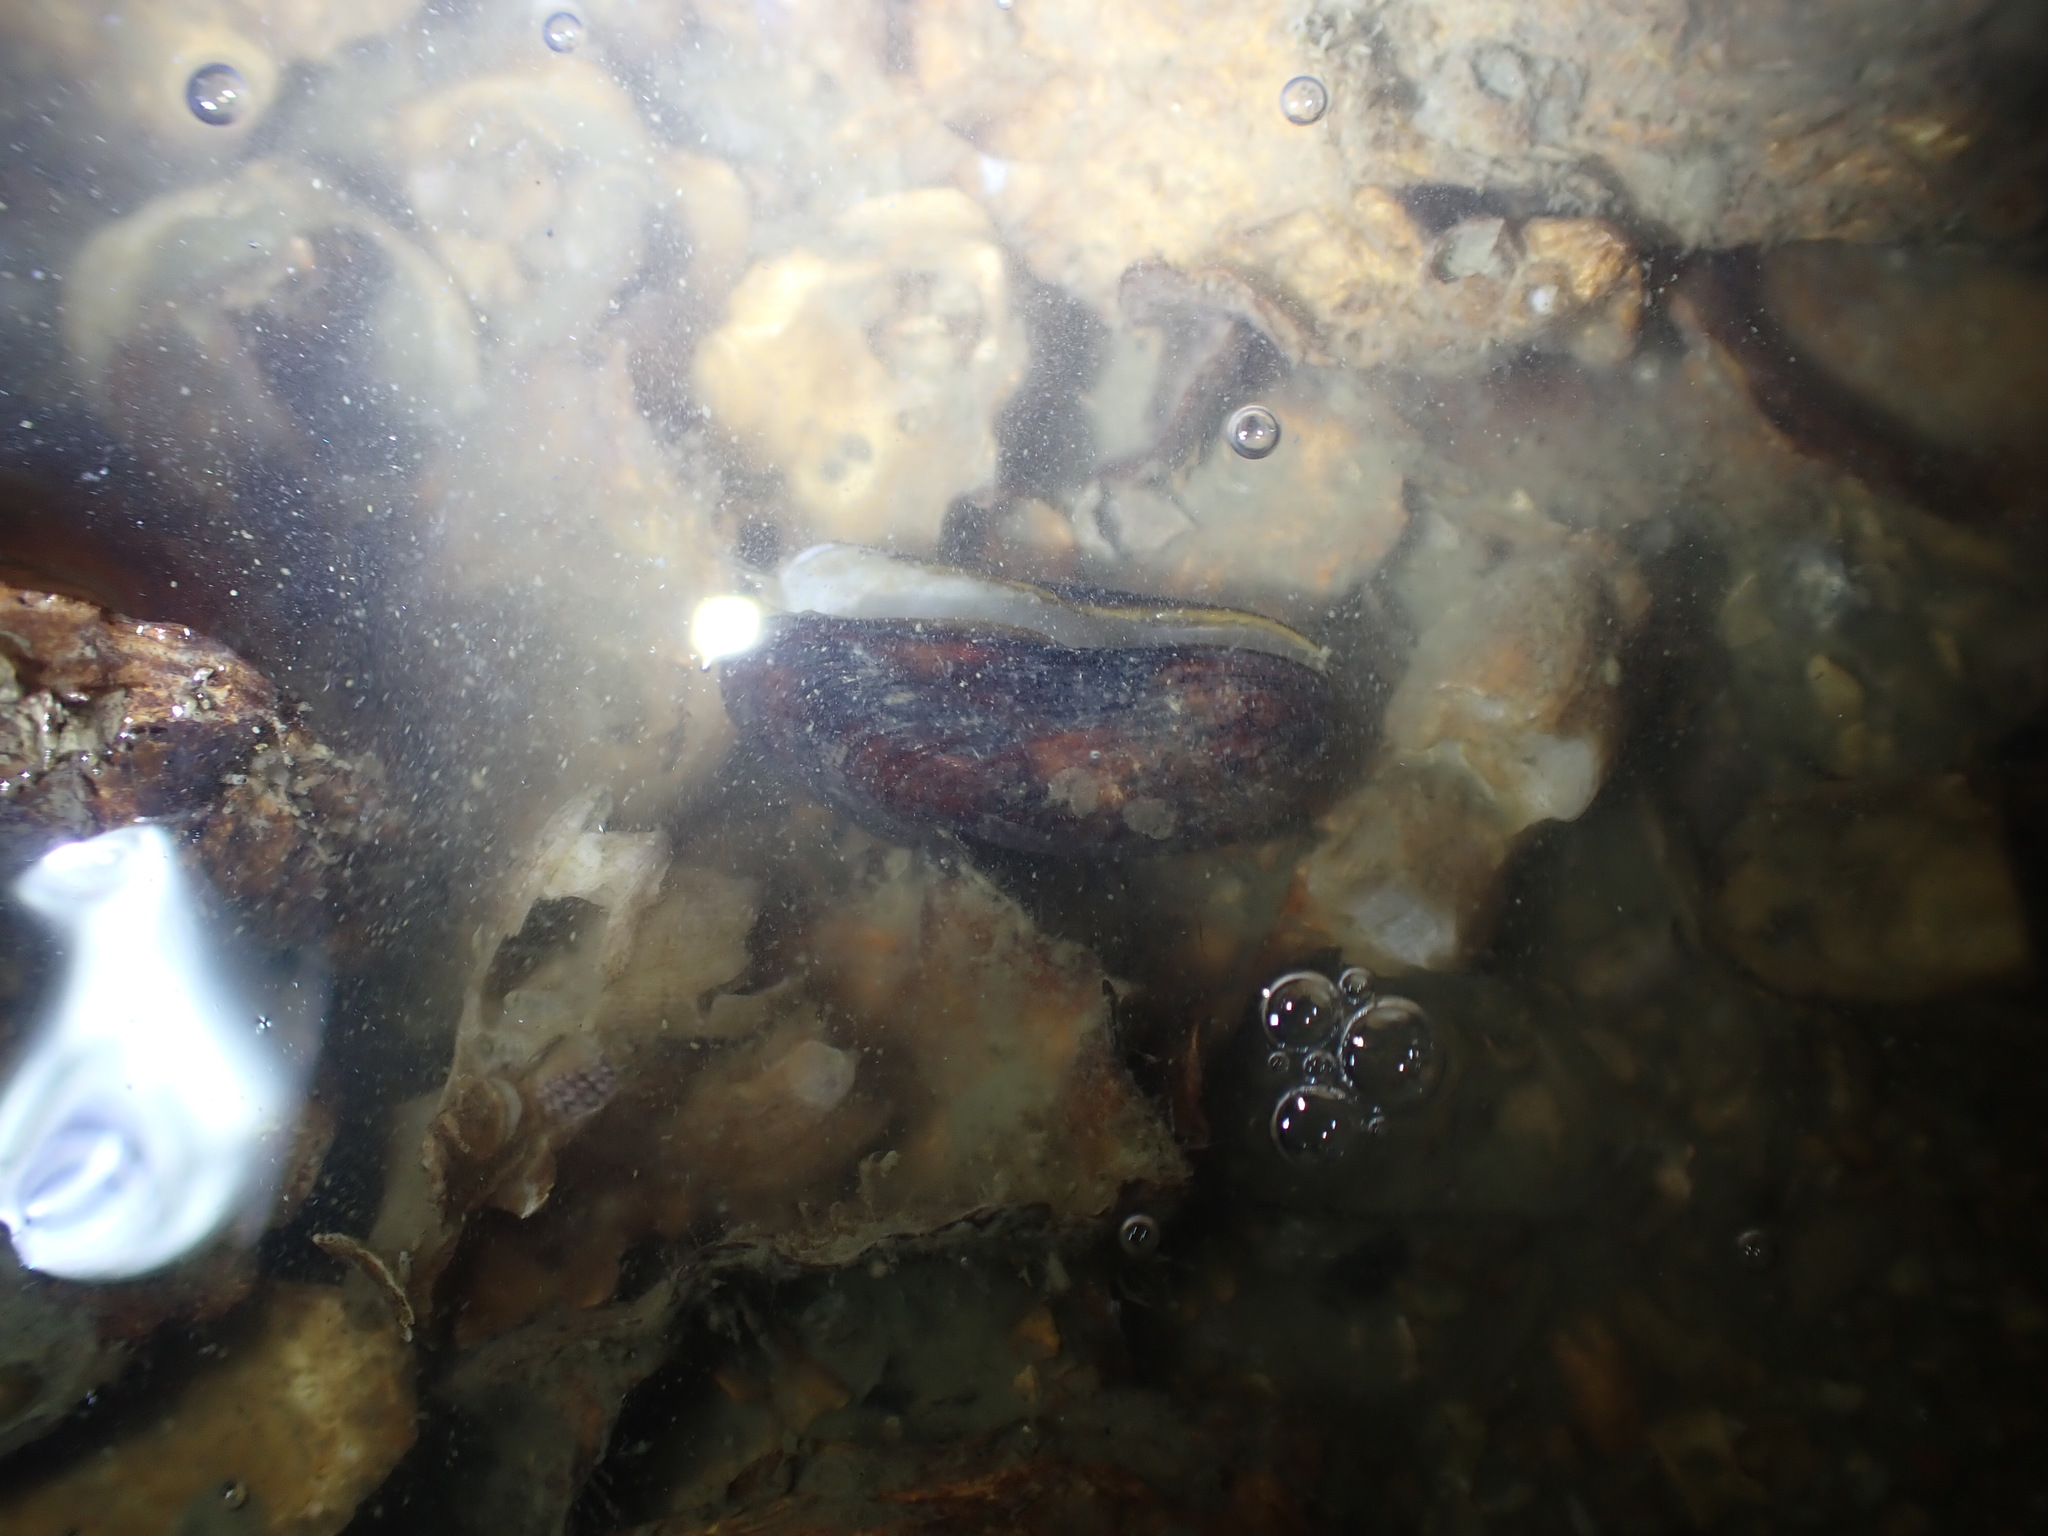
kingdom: Animalia
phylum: Mollusca
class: Bivalvia
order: Mytilida
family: Mytilidae
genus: Xenostrobus
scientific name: Xenostrobus securis
